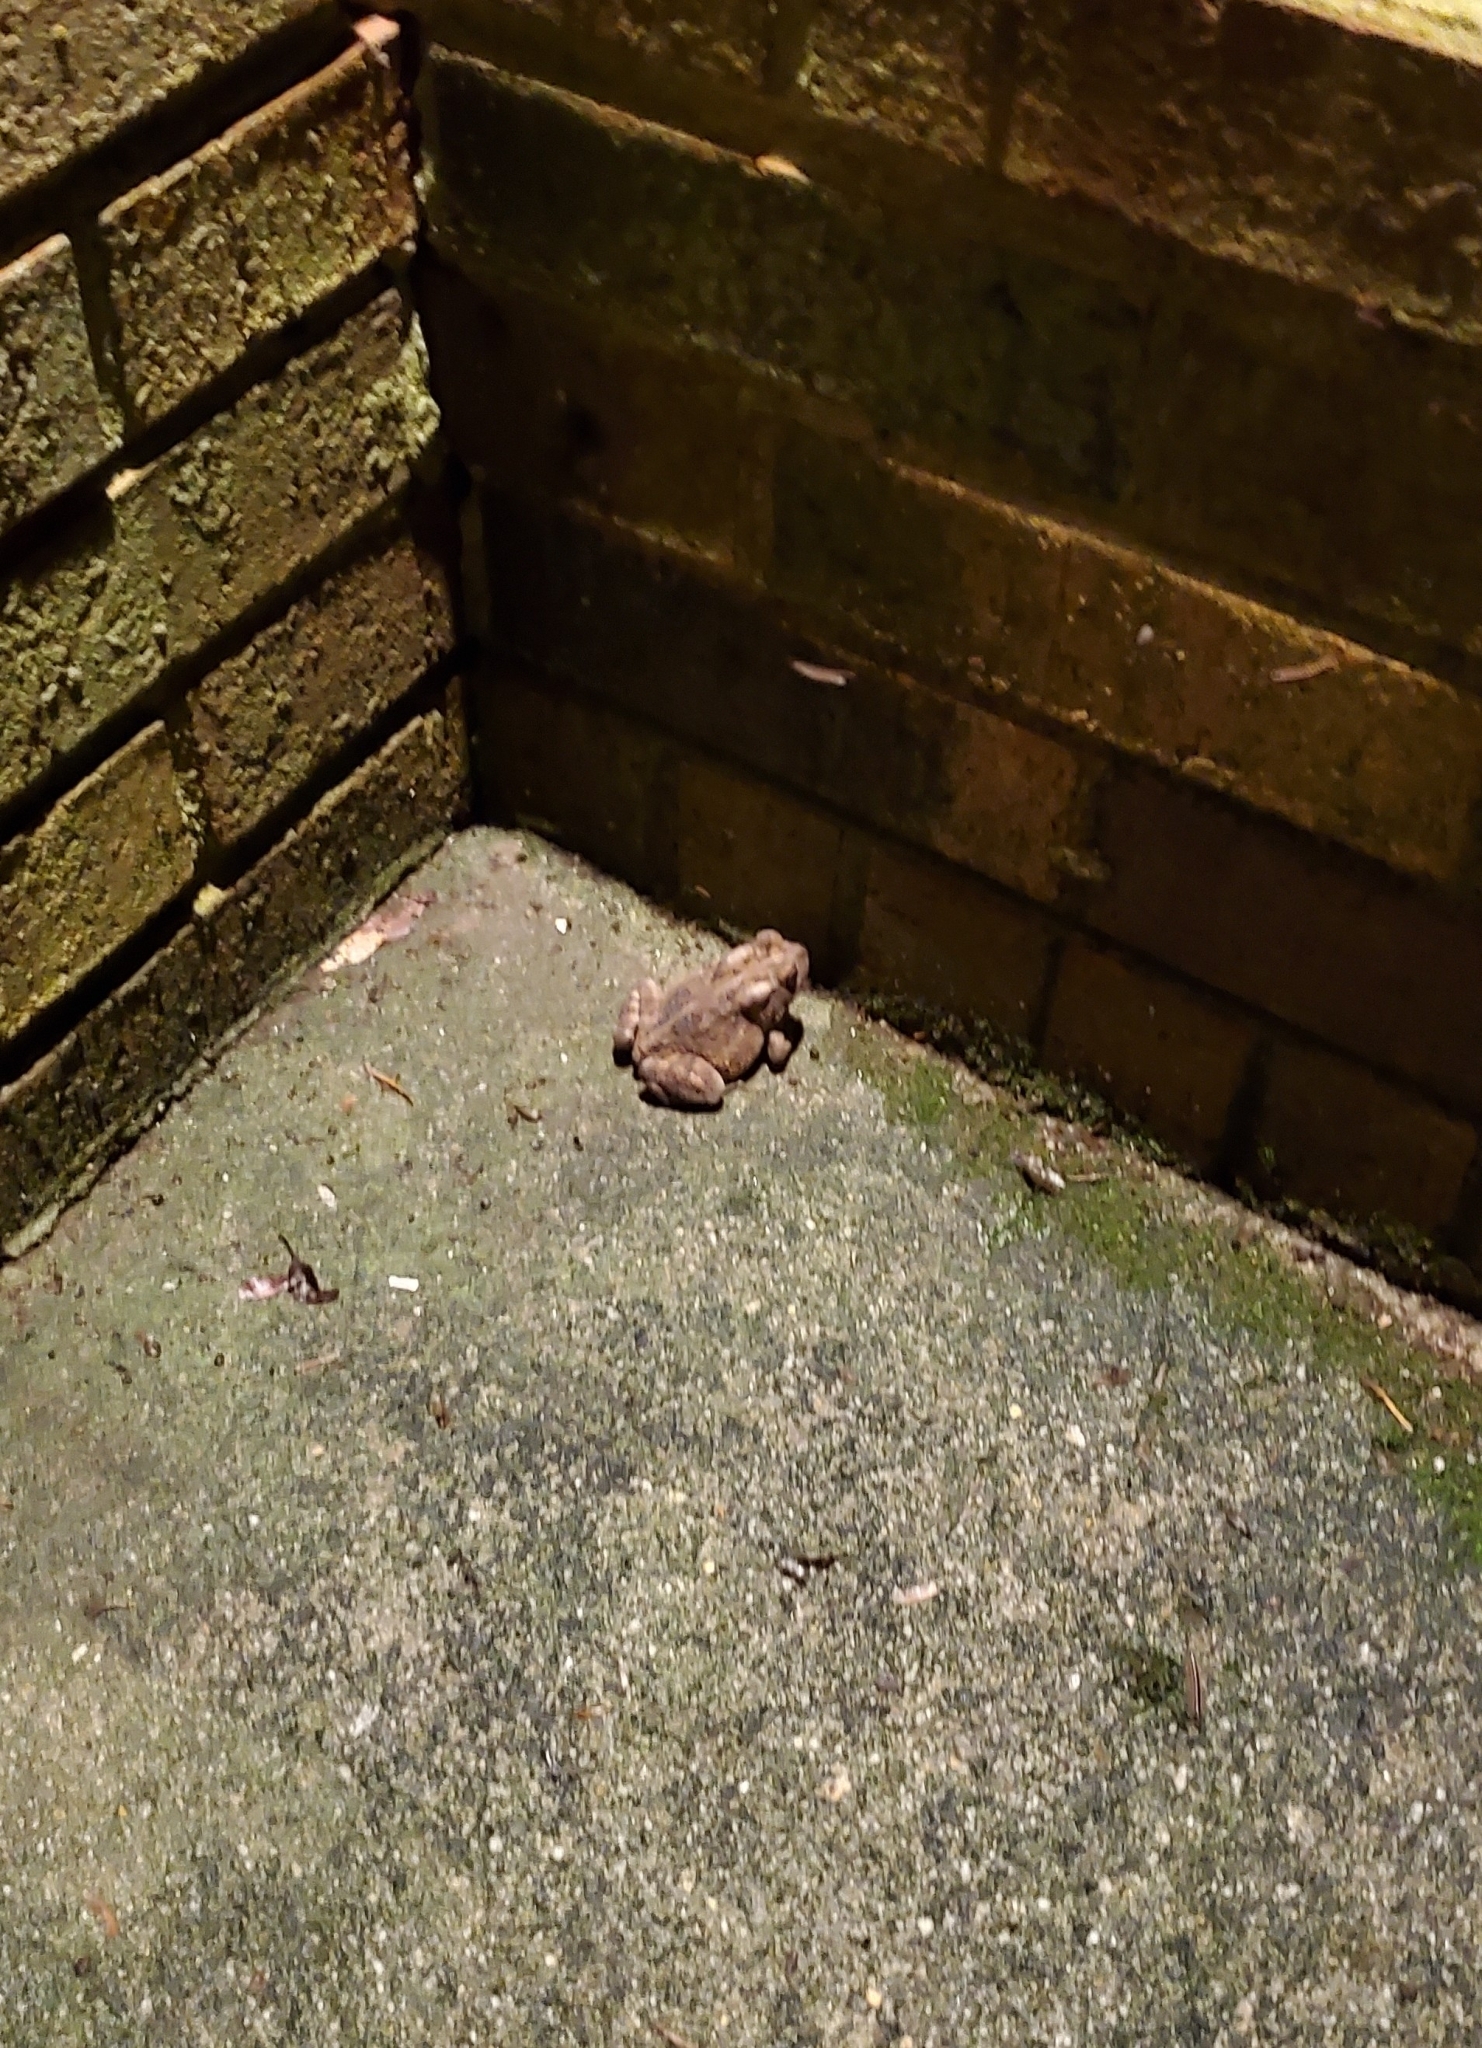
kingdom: Animalia
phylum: Chordata
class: Amphibia
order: Anura
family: Bufonidae
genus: Anaxyrus
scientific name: Anaxyrus americanus
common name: American toad
